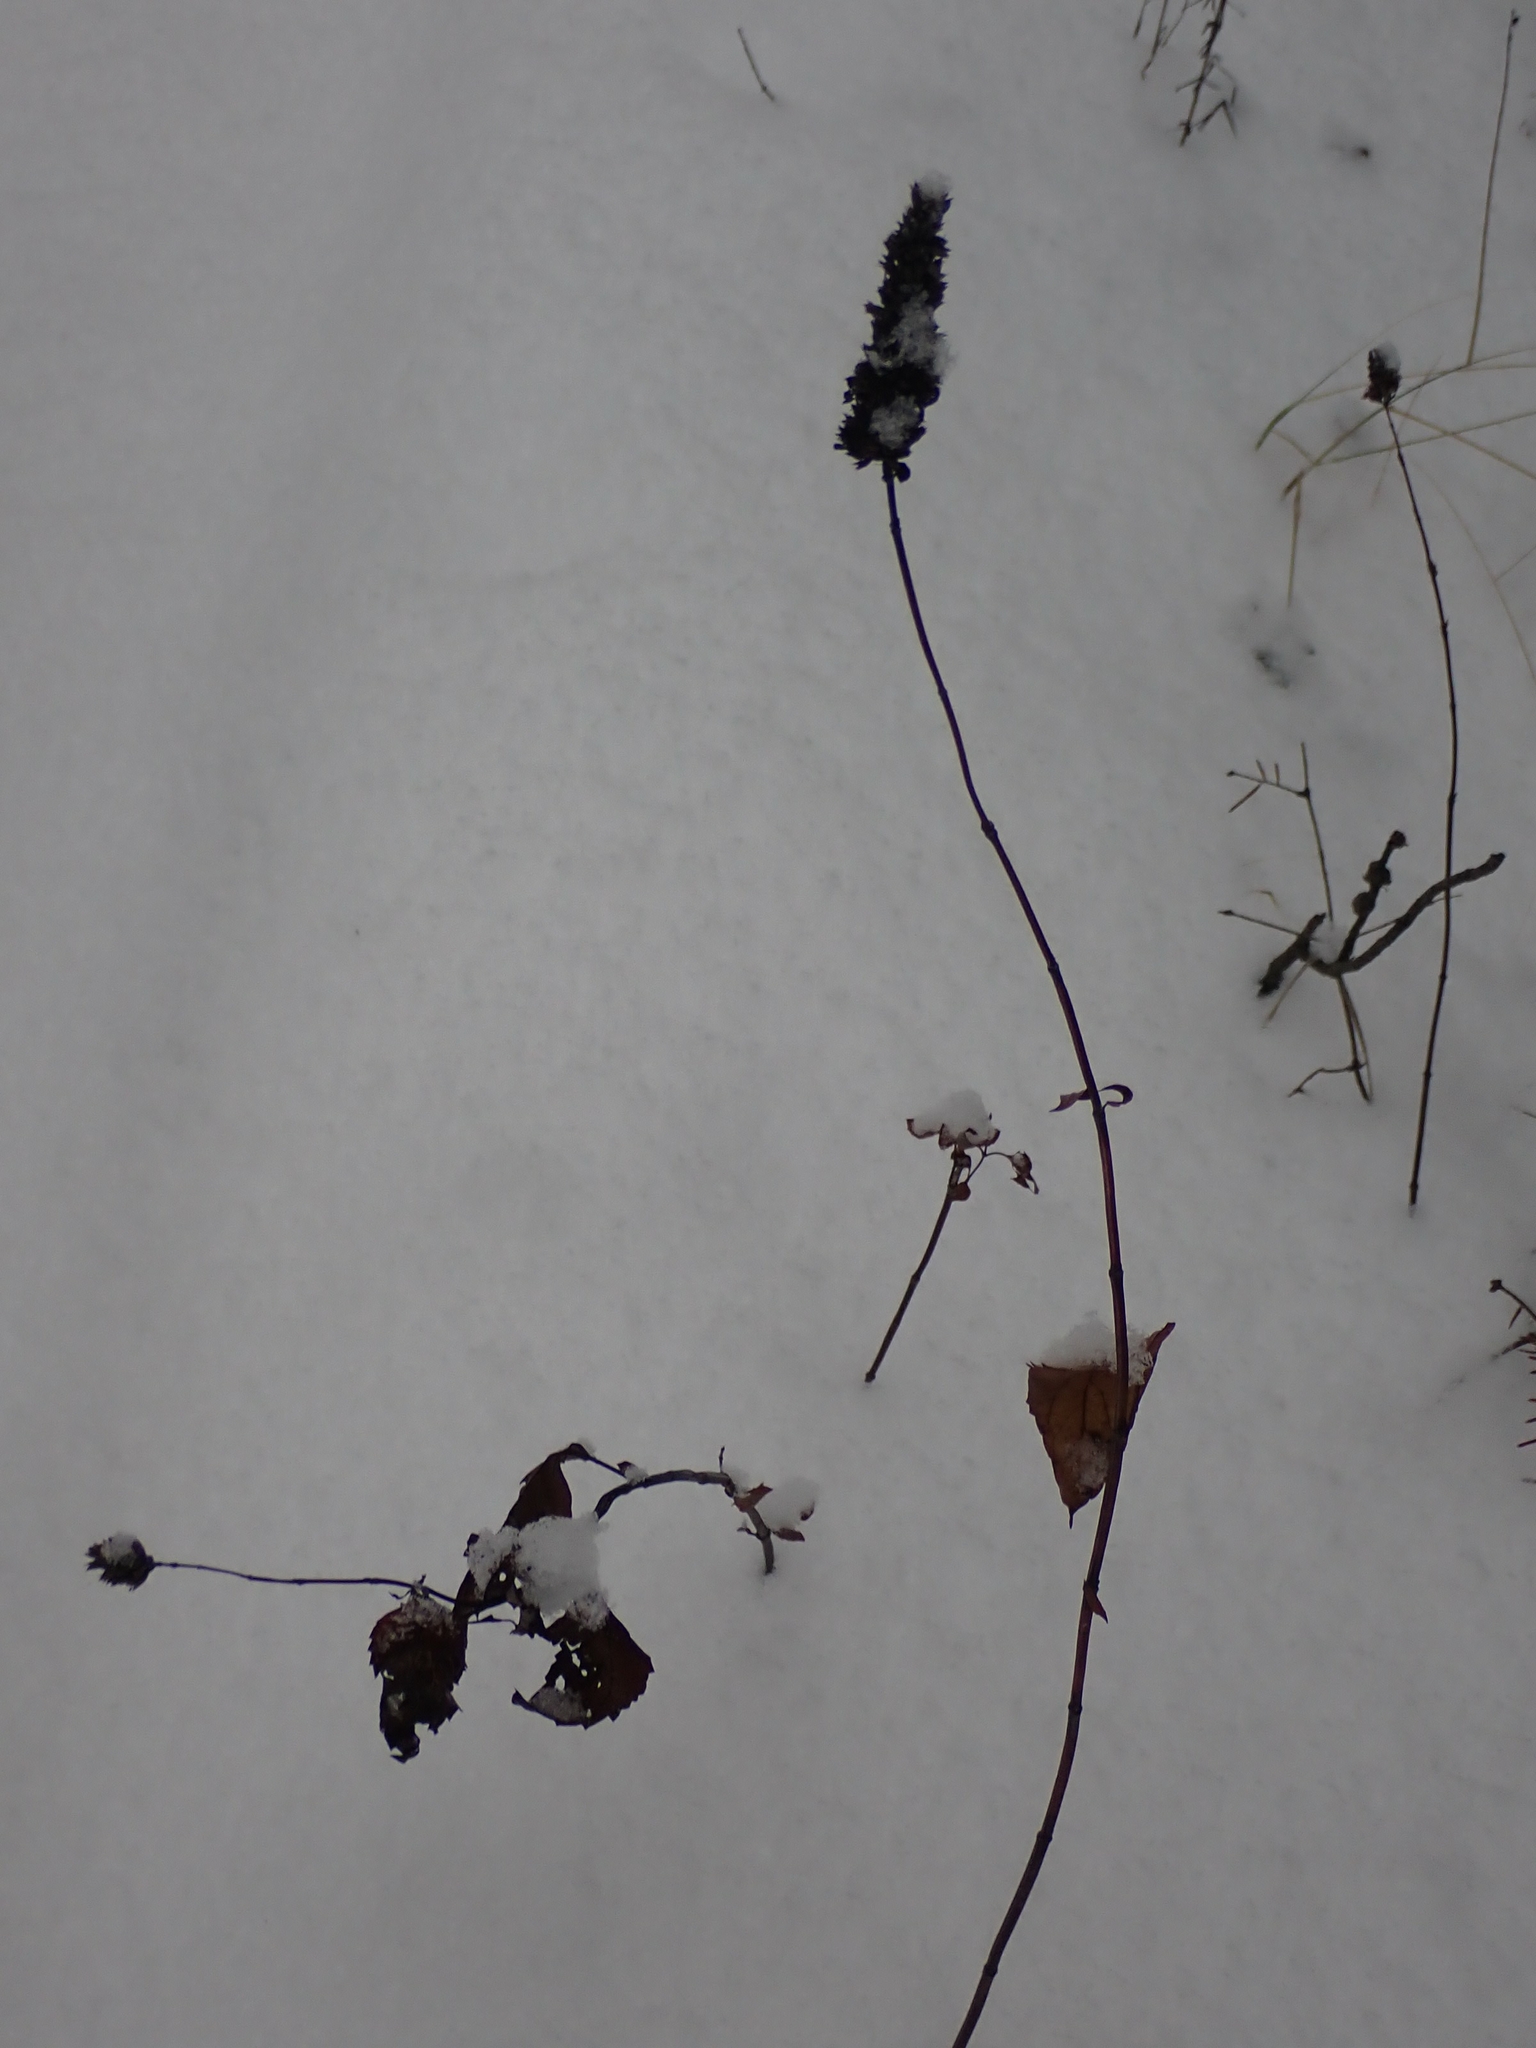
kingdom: Plantae
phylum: Tracheophyta
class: Magnoliopsida
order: Lamiales
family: Lamiaceae
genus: Agastache
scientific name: Agastache foeniculum
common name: Anise hyssop
